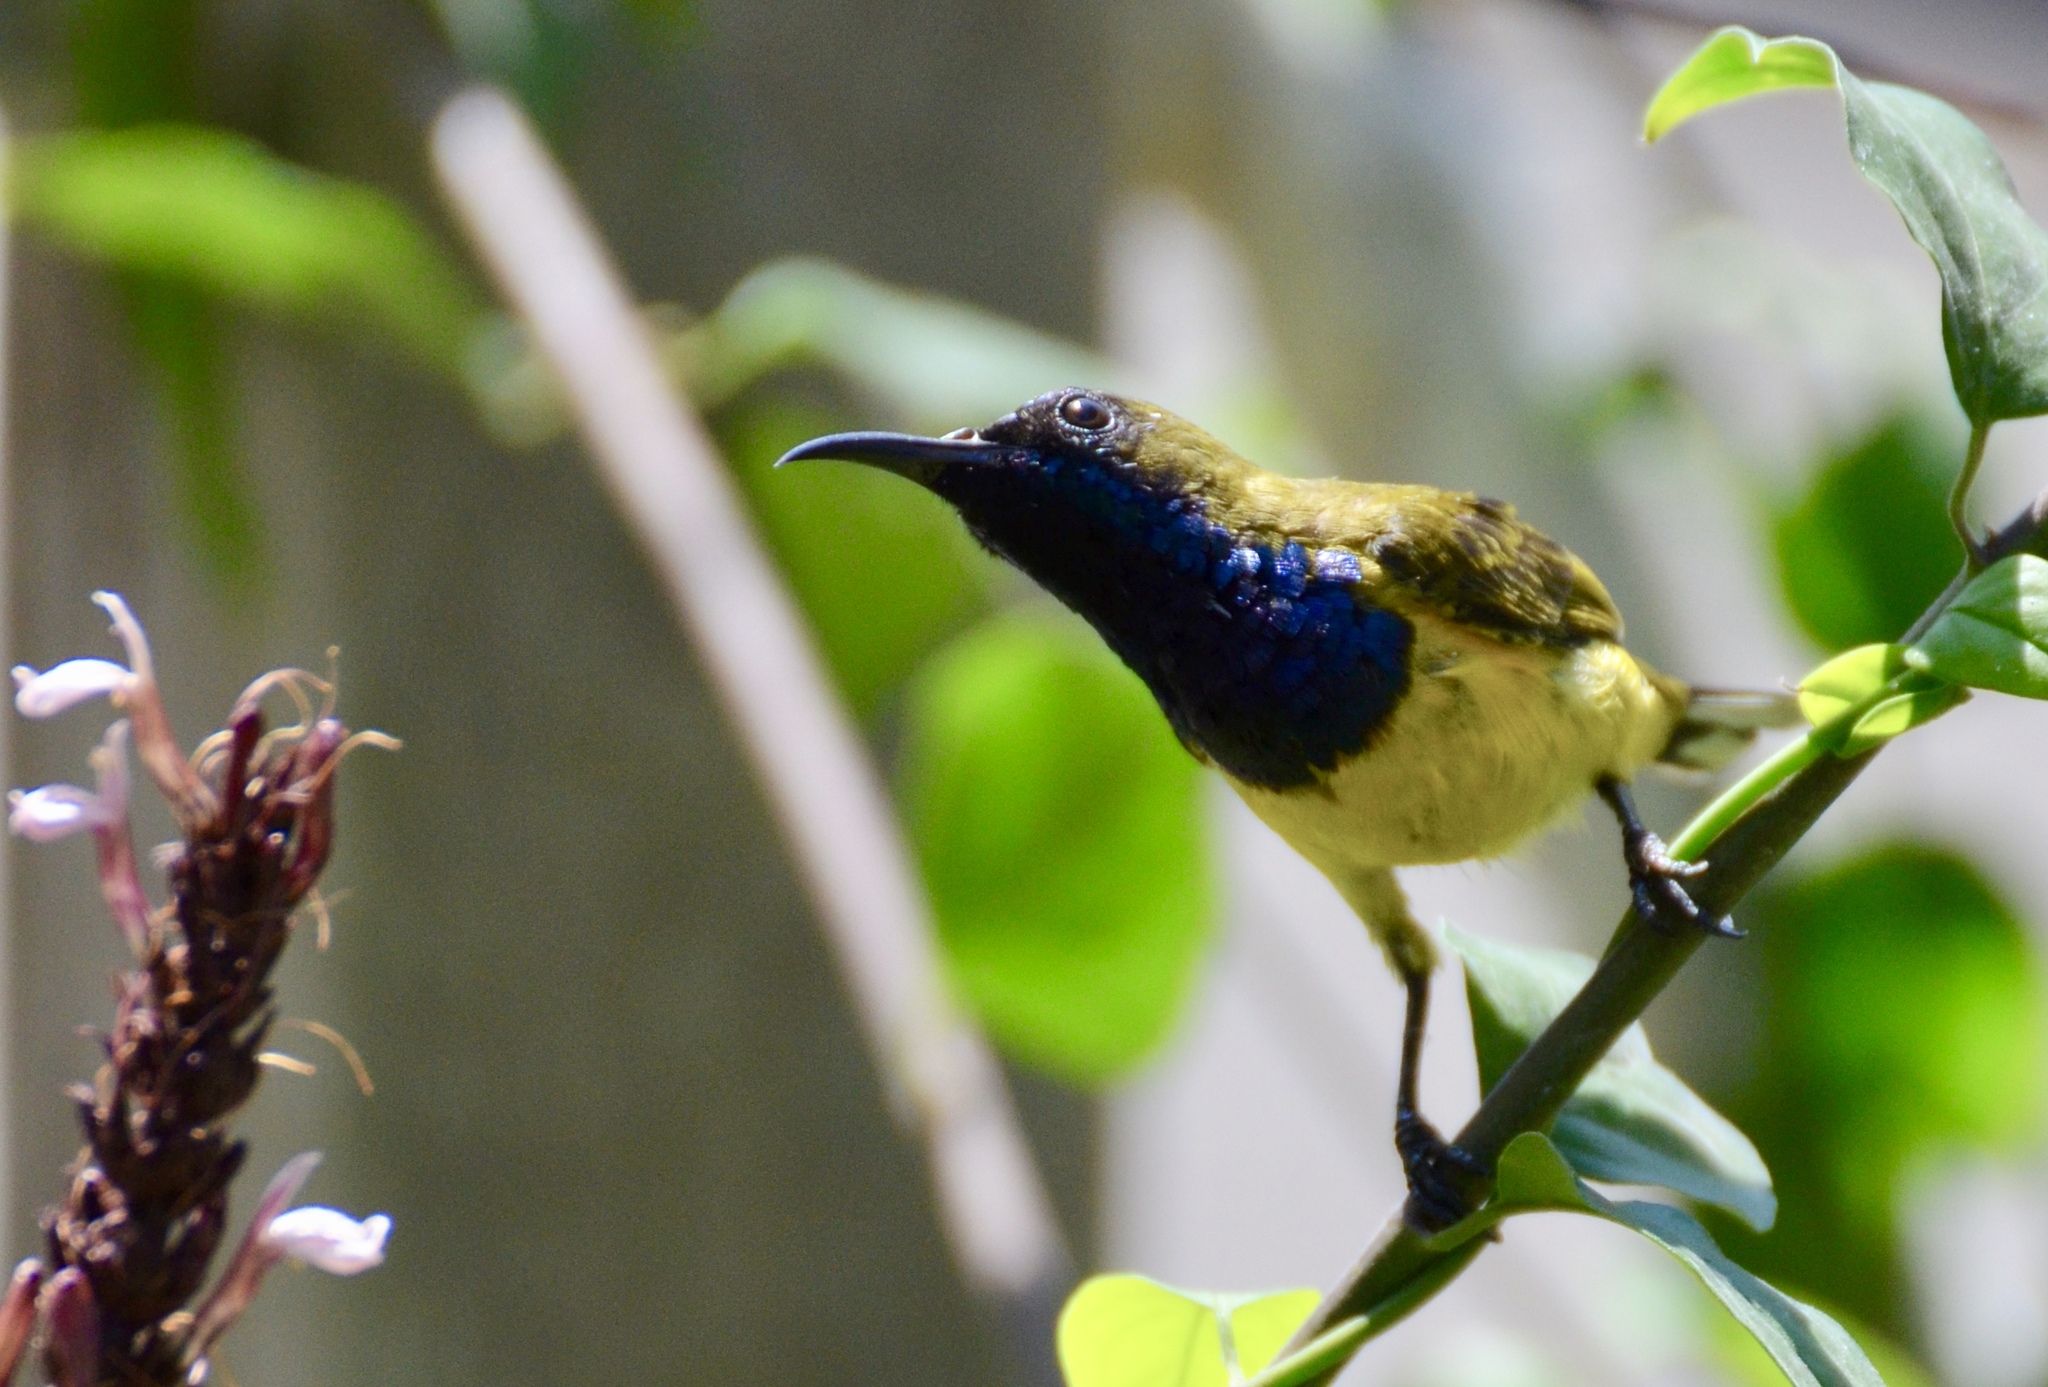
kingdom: Animalia
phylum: Chordata
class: Aves
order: Passeriformes
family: Nectariniidae
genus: Cinnyris
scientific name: Cinnyris
